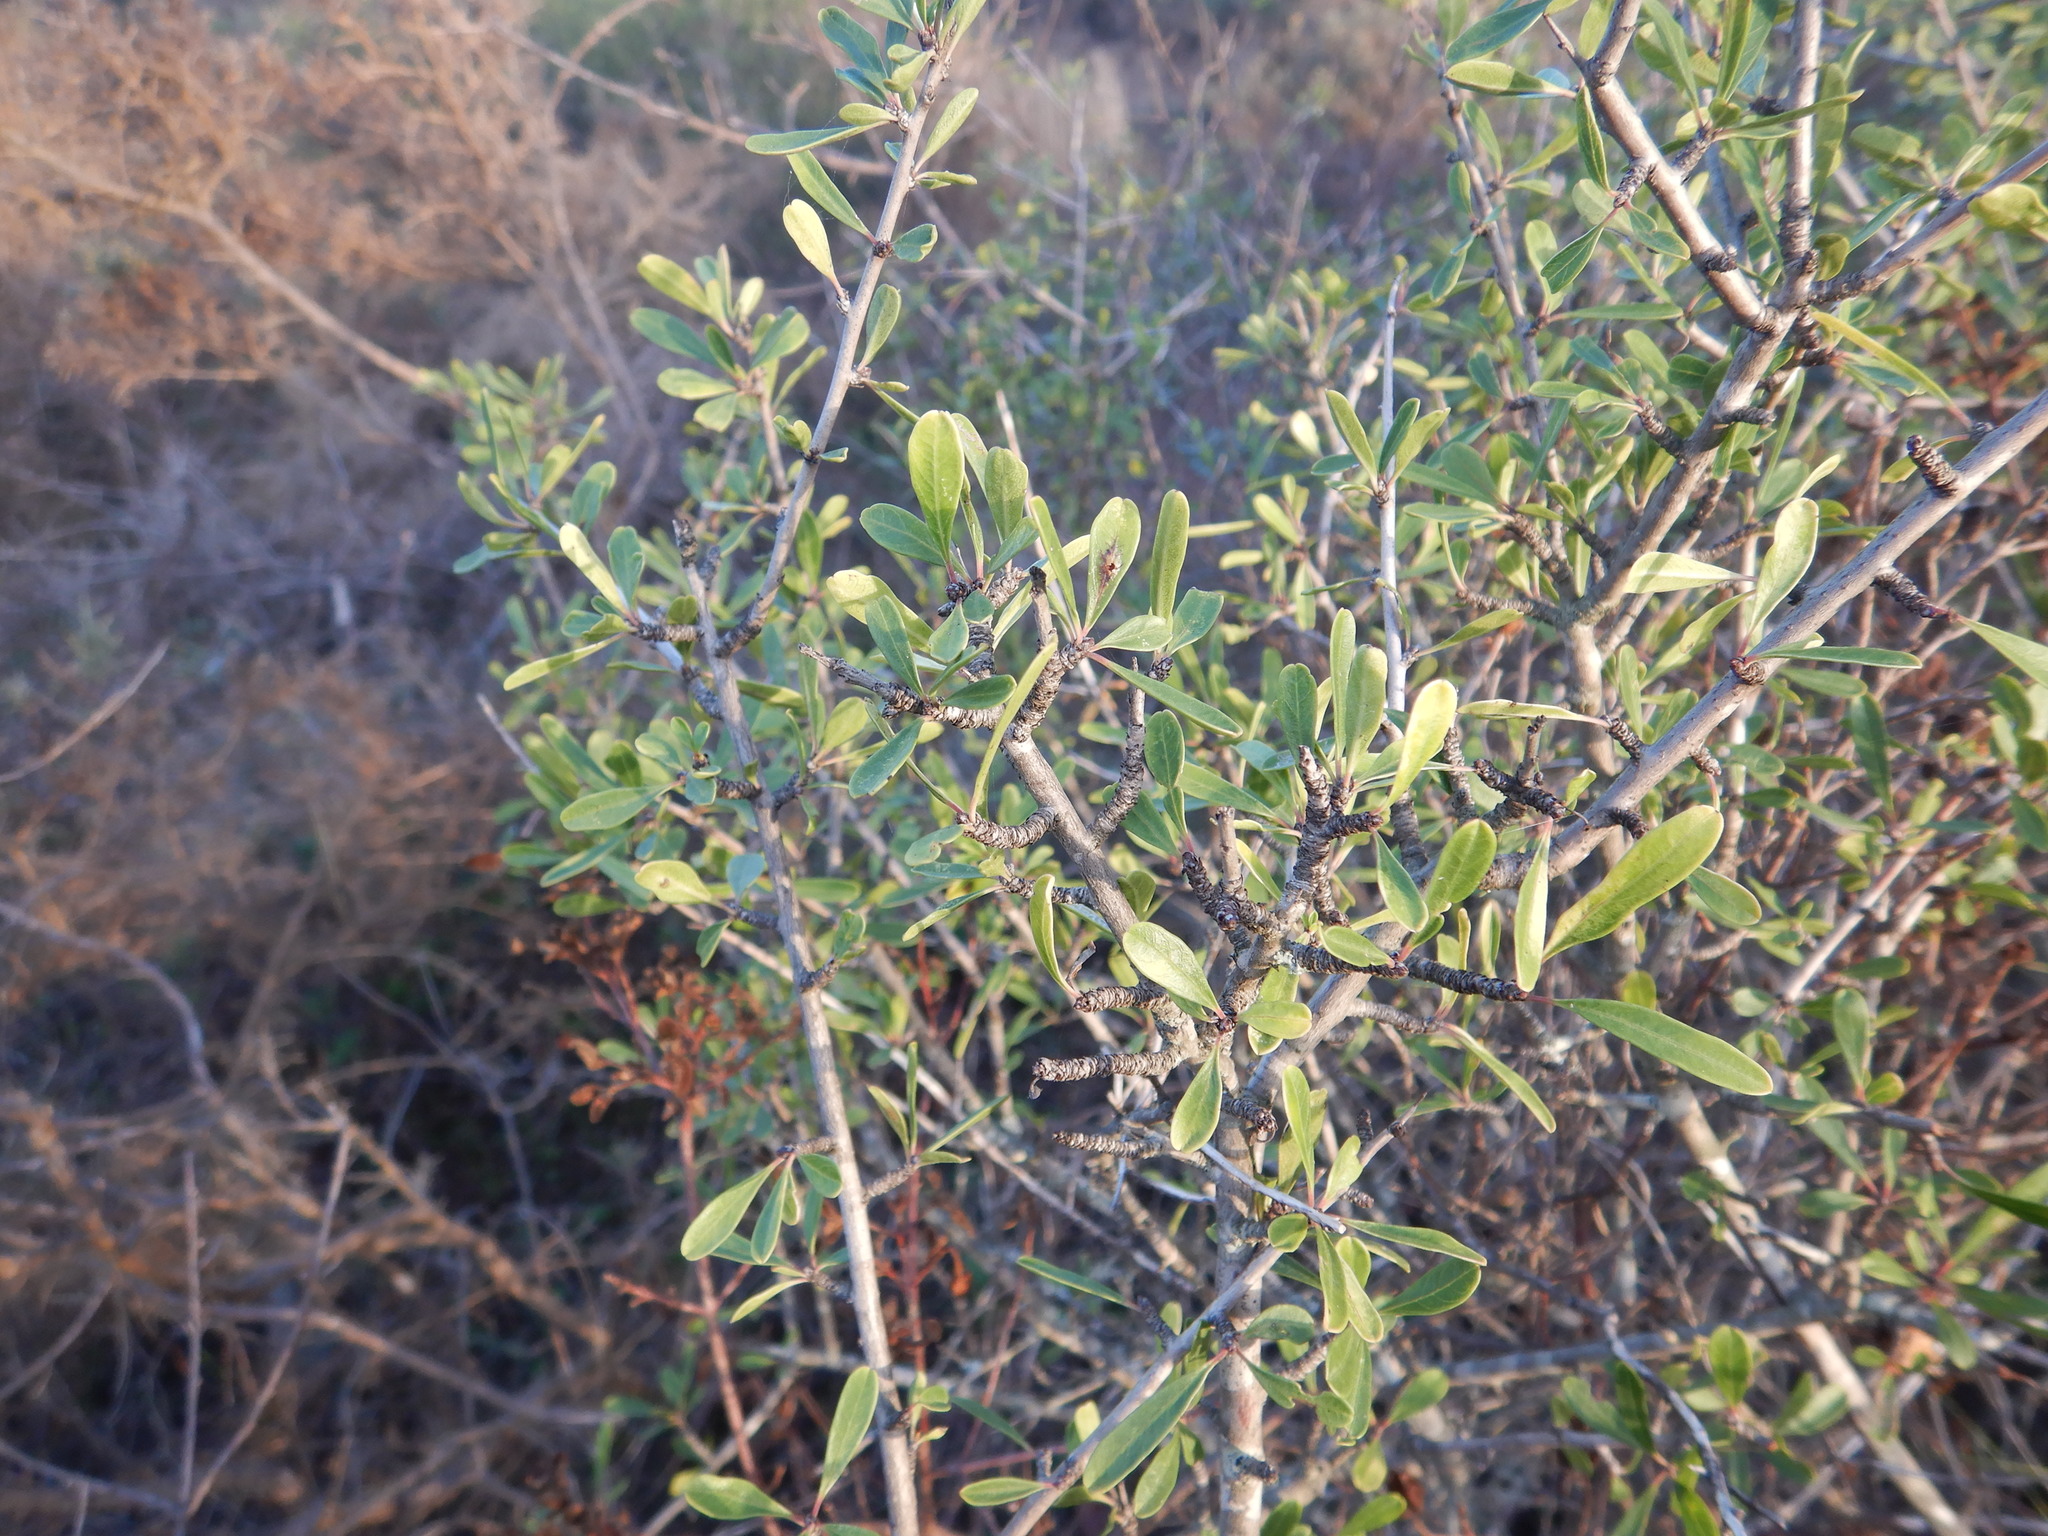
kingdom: Plantae
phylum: Tracheophyta
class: Magnoliopsida
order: Rosales
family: Rhamnaceae
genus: Rhamnus
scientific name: Rhamnus oleoides
